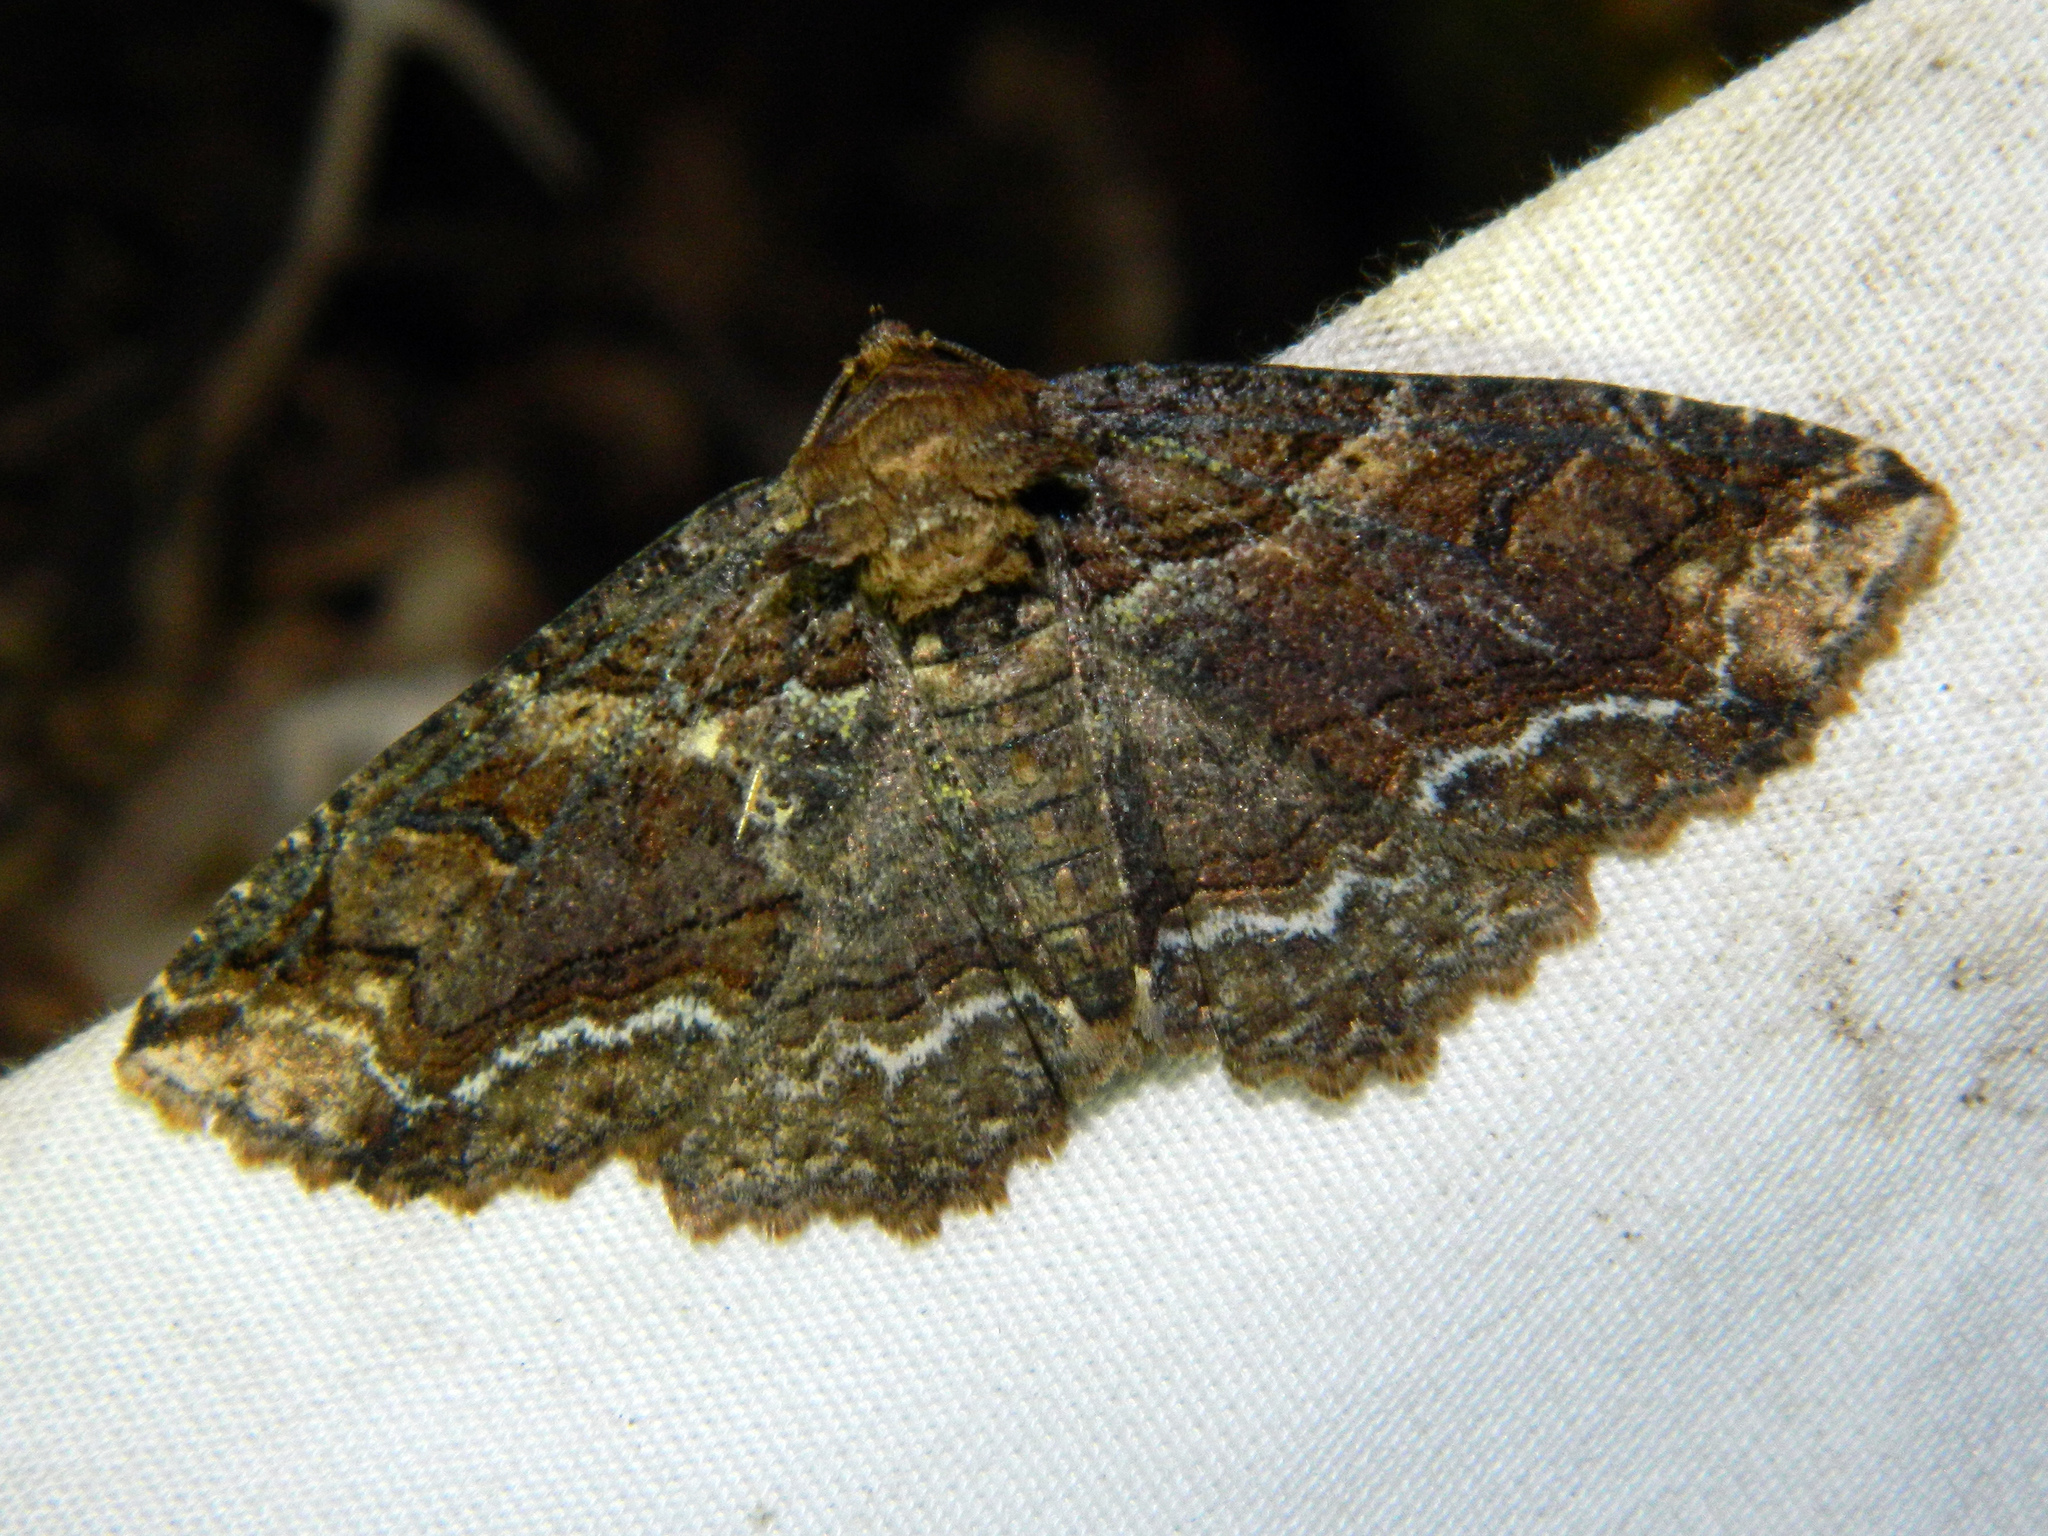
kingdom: Animalia
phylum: Arthropoda
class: Insecta
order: Lepidoptera
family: Erebidae
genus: Zale
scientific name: Zale minerea
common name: Colorful zale moth
